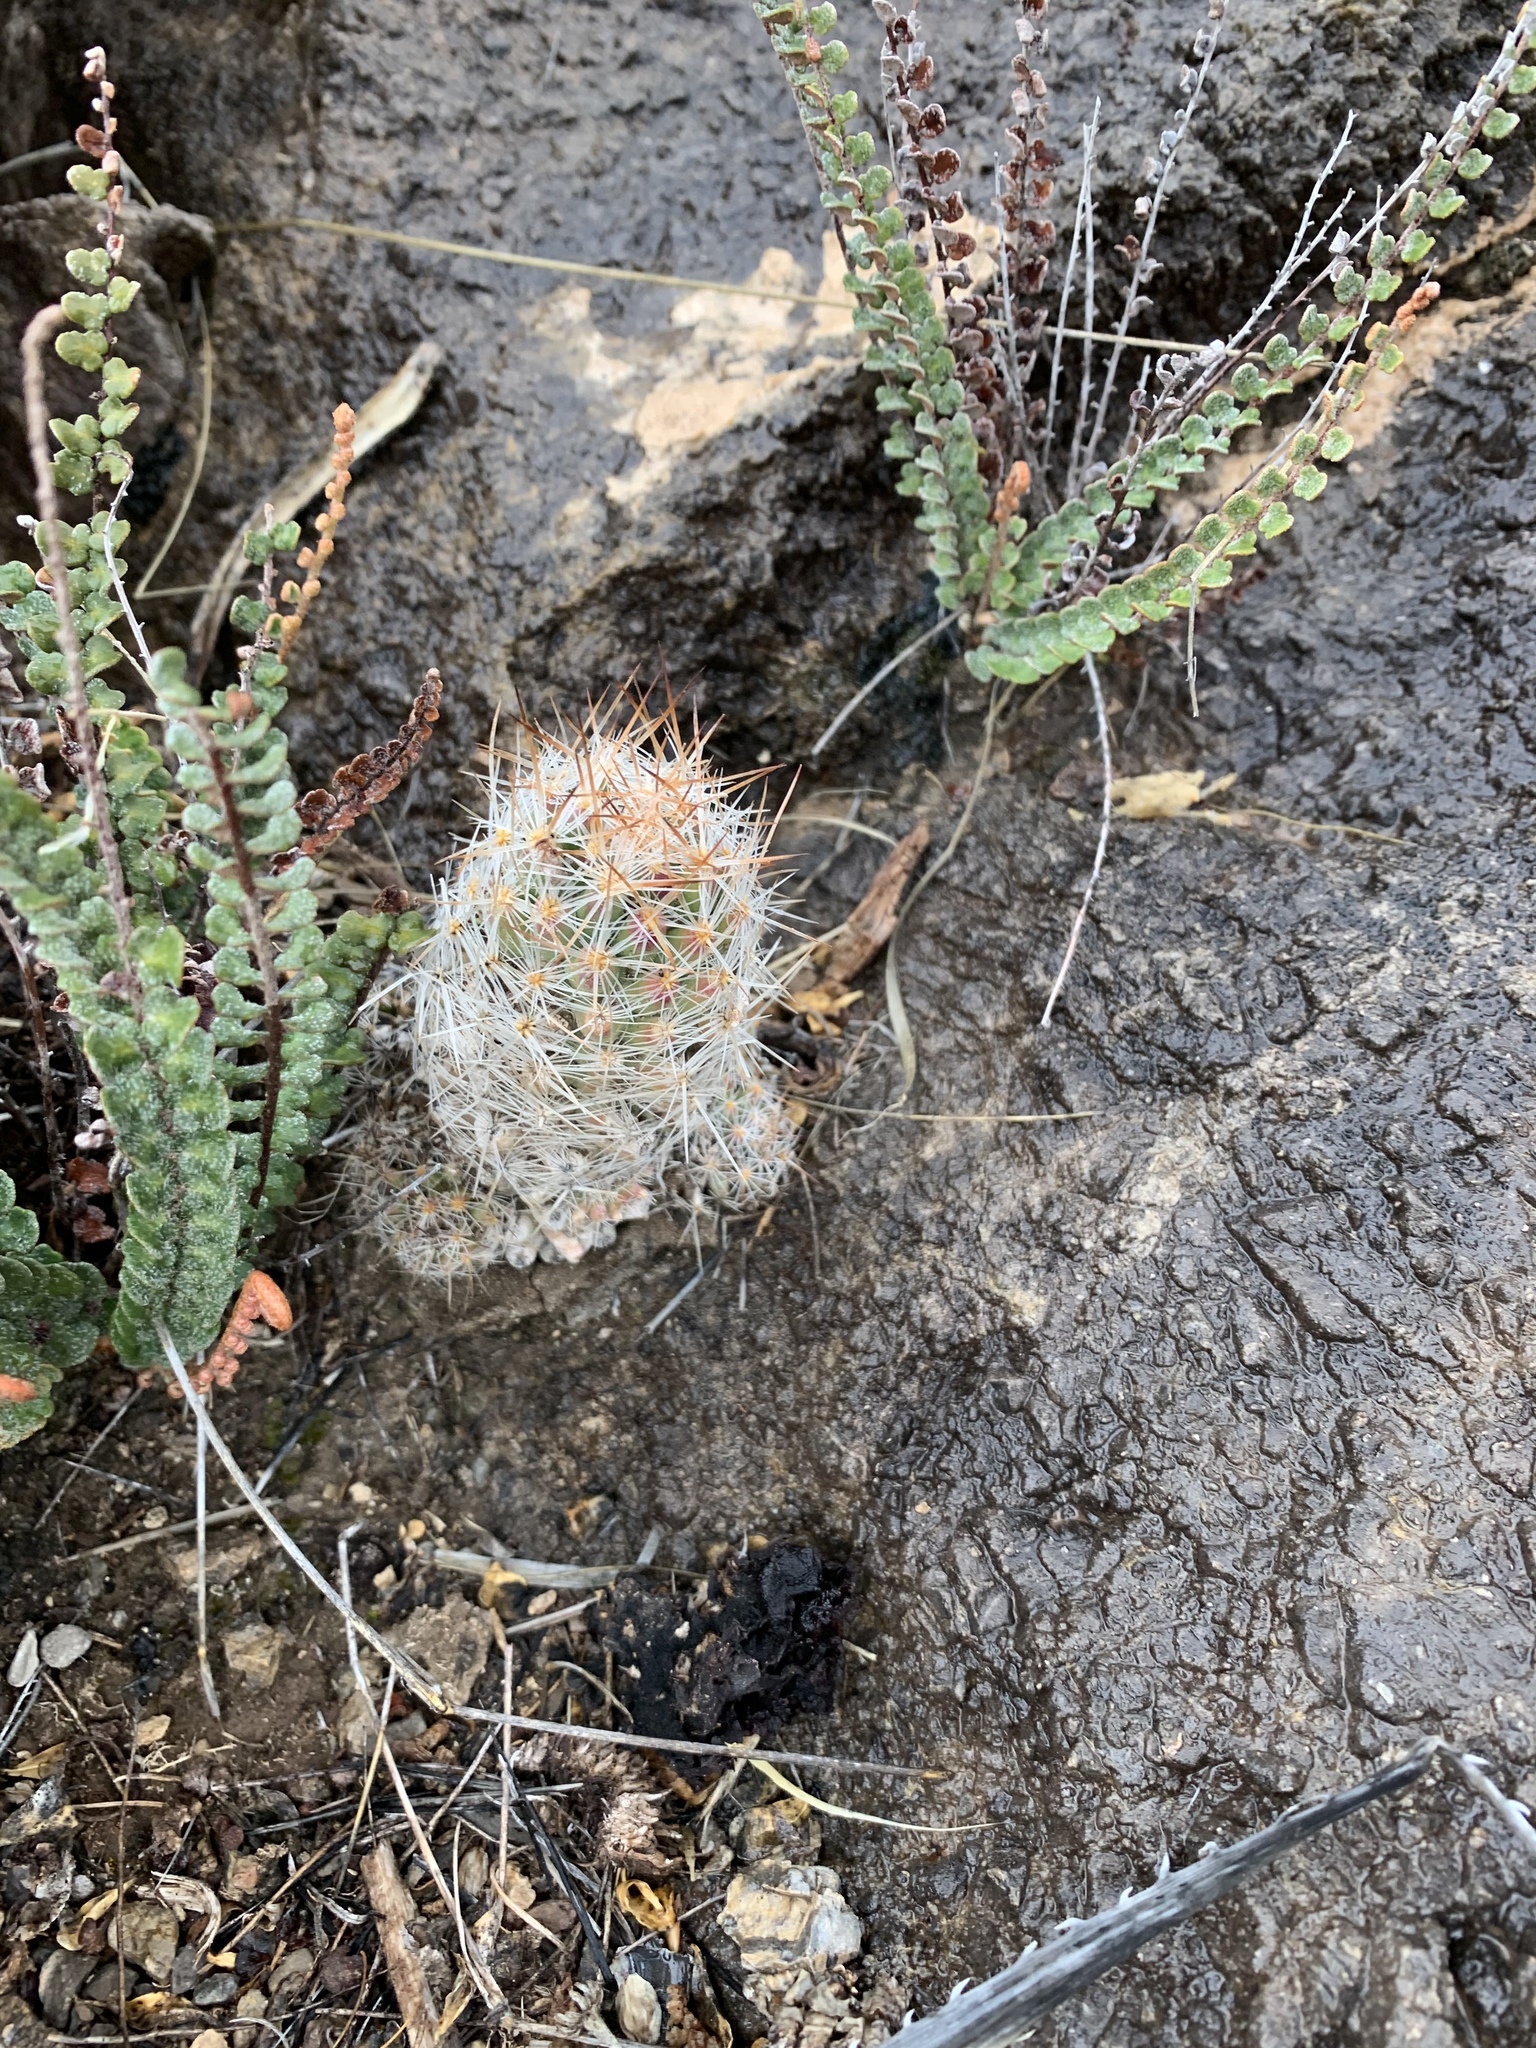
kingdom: Plantae
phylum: Tracheophyta
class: Magnoliopsida
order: Caryophyllales
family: Cactaceae
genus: Pelecyphora
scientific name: Pelecyphora tuberculosa
